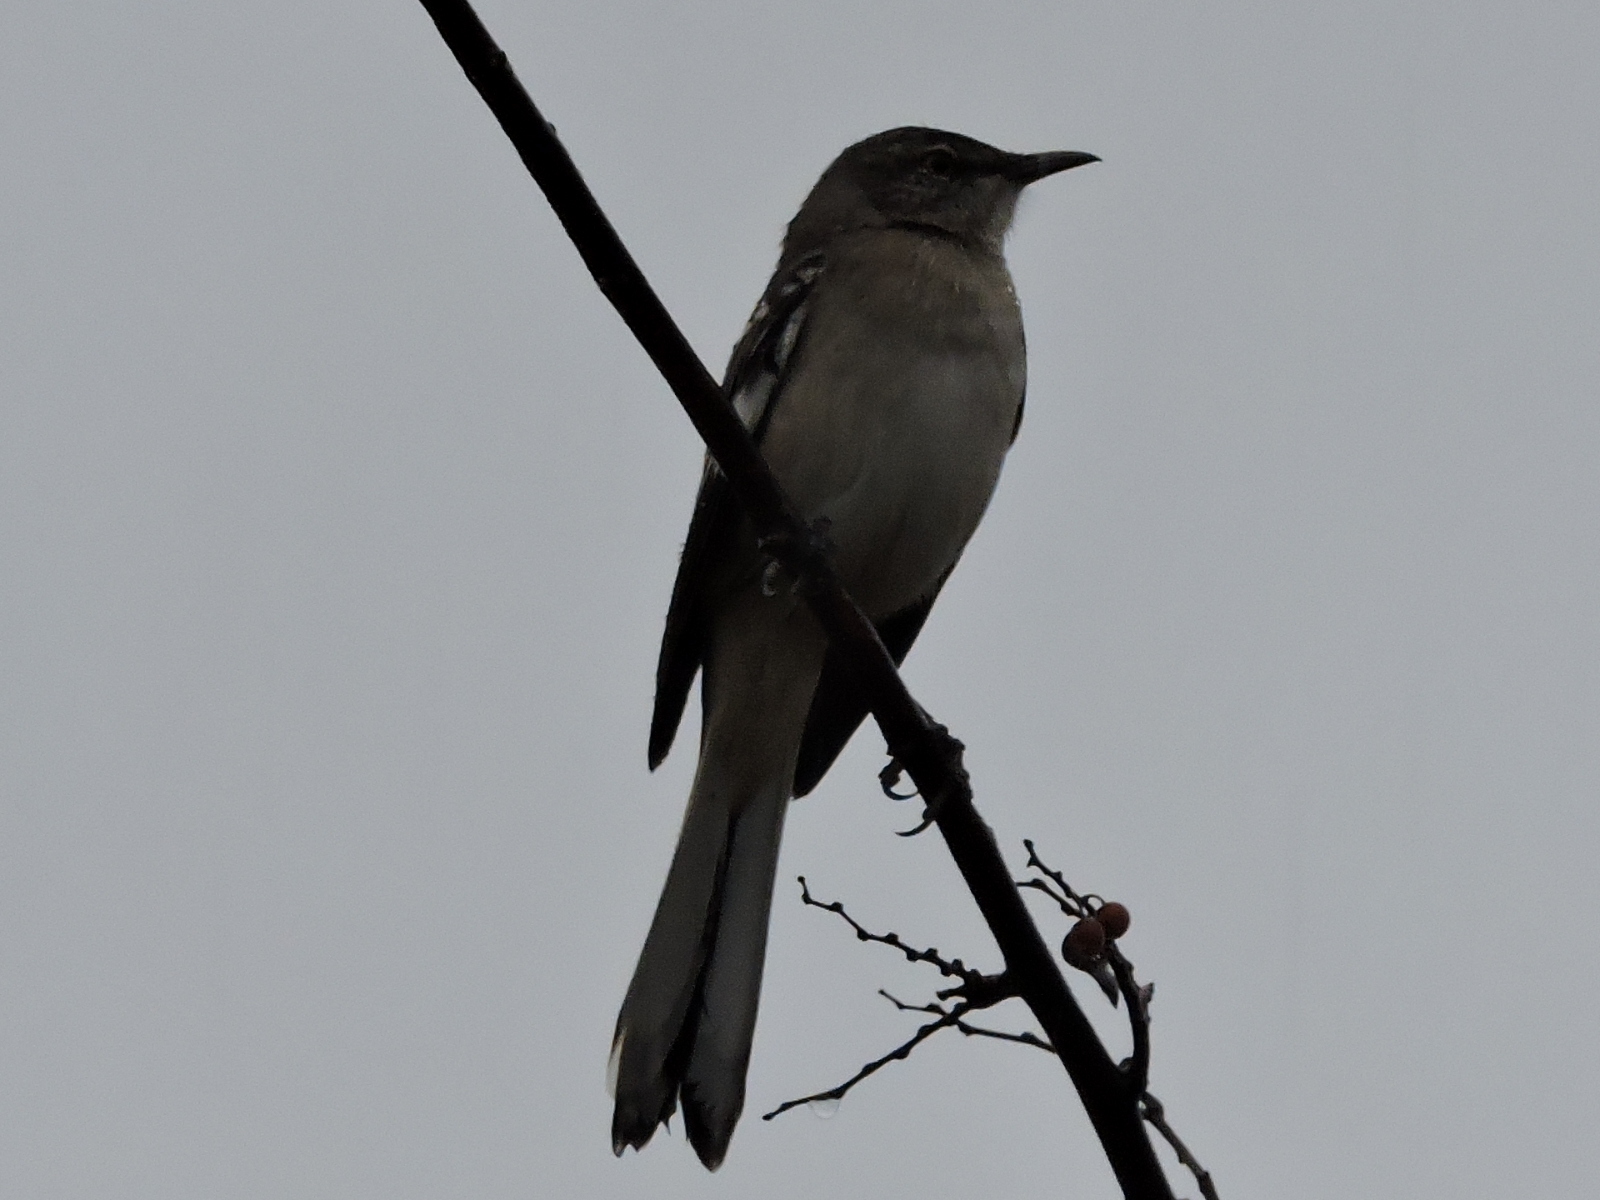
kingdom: Animalia
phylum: Chordata
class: Aves
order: Passeriformes
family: Mimidae
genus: Mimus
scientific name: Mimus polyglottos
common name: Northern mockingbird
